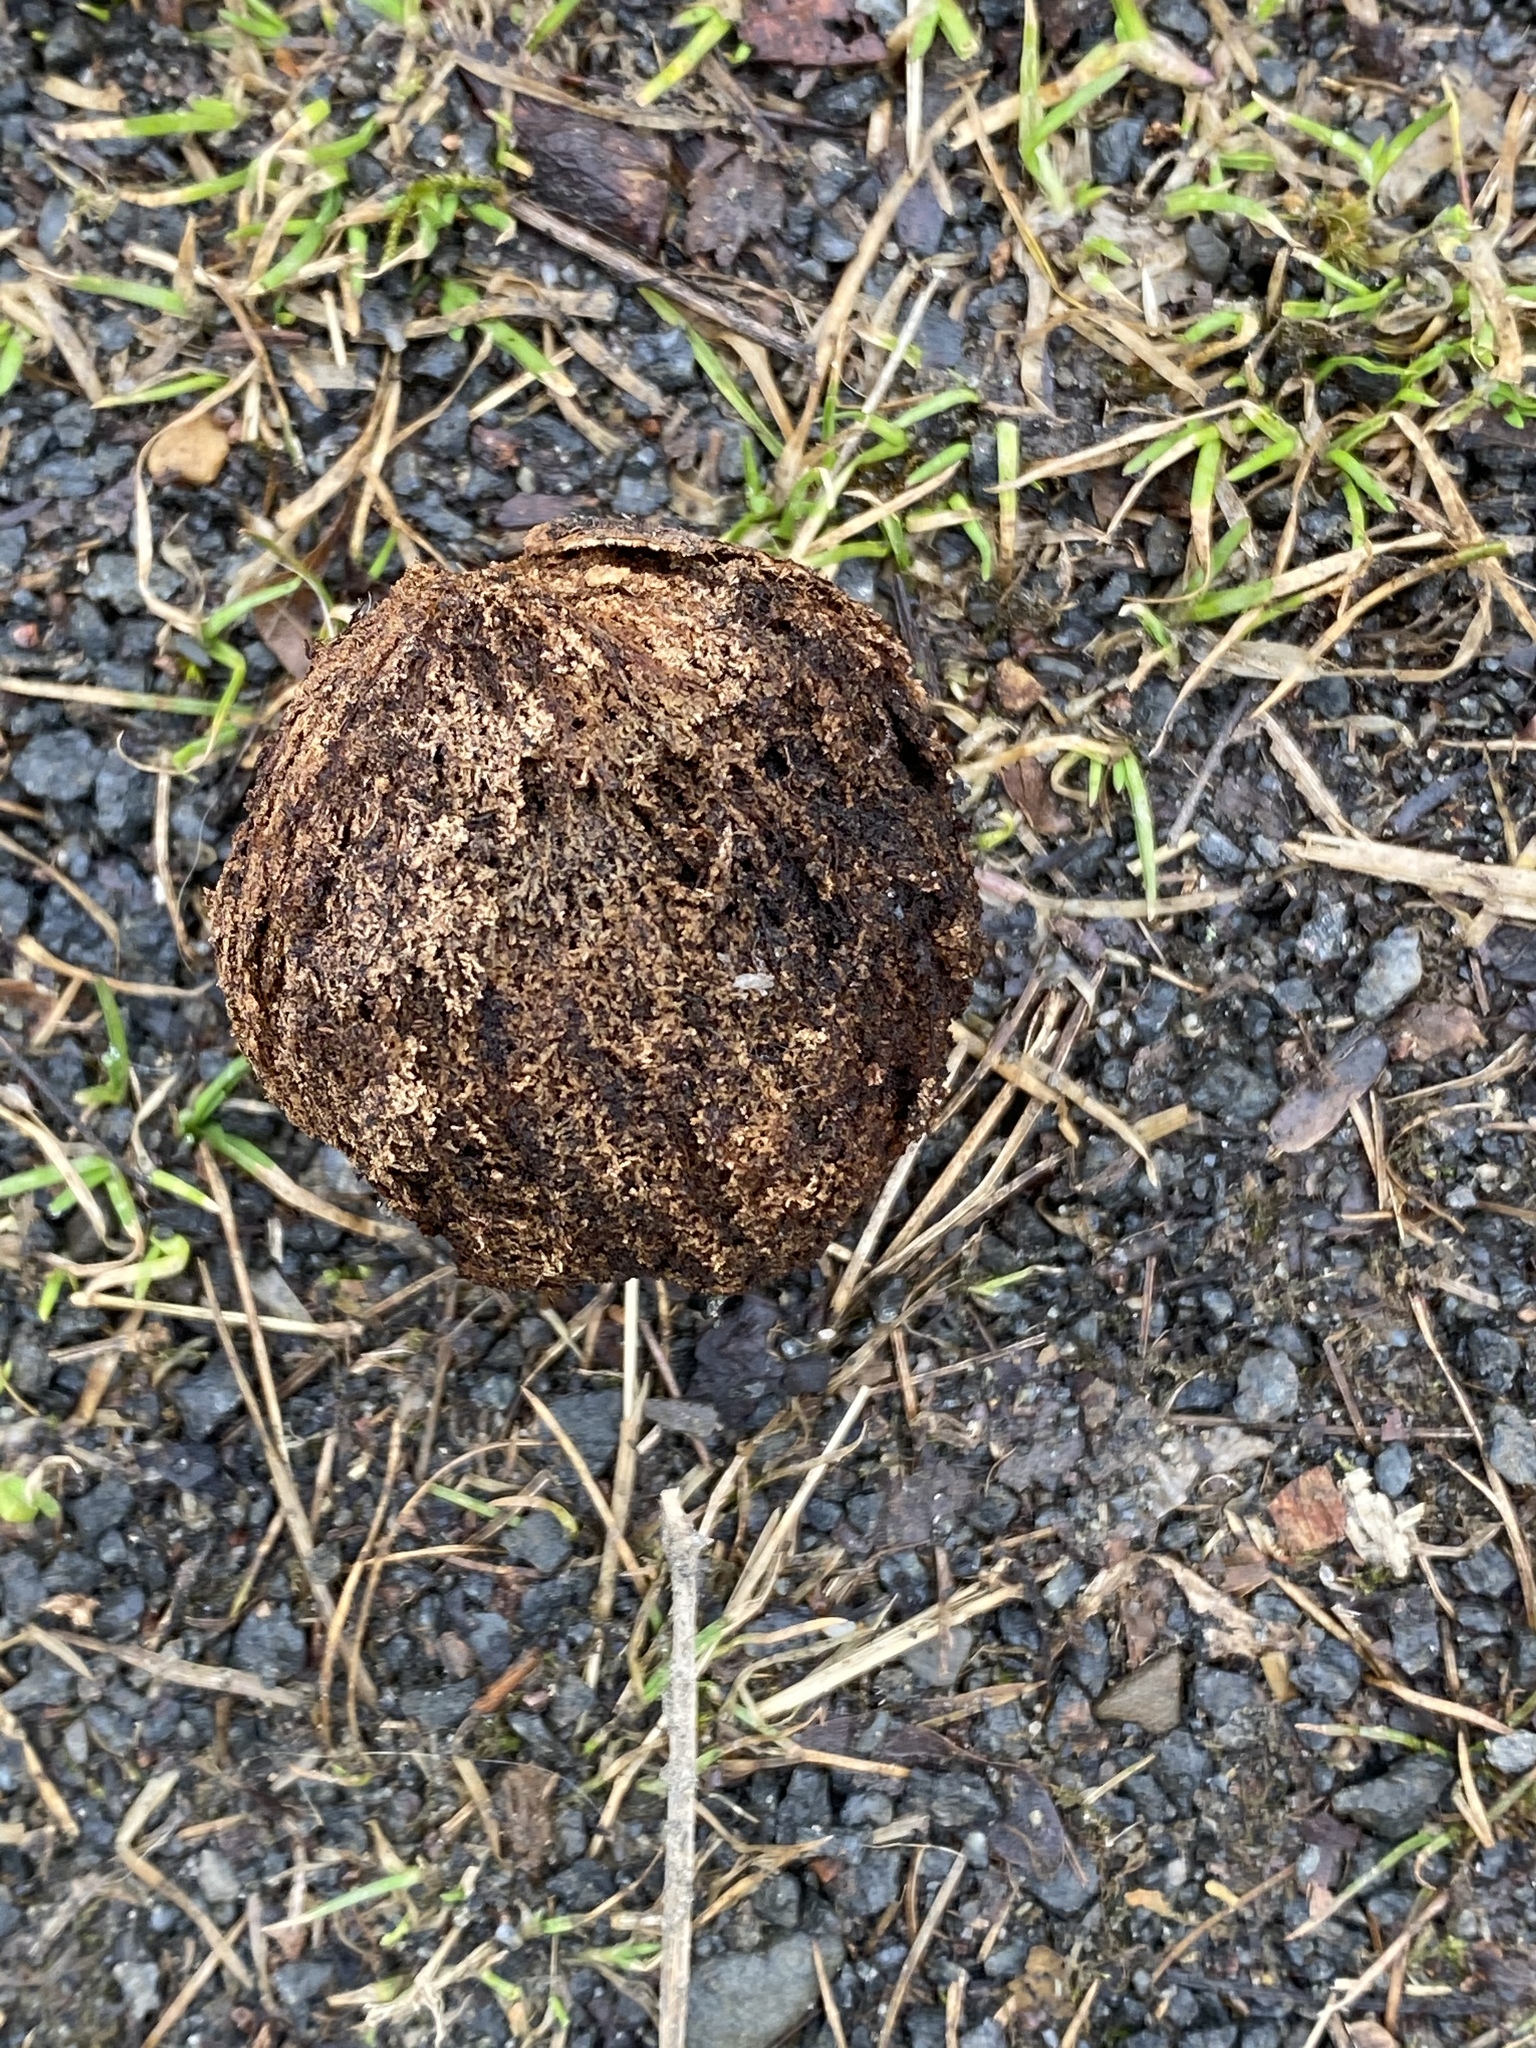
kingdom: Plantae
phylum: Tracheophyta
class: Magnoliopsida
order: Fagales
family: Juglandaceae
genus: Juglans
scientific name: Juglans nigra
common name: Black walnut
